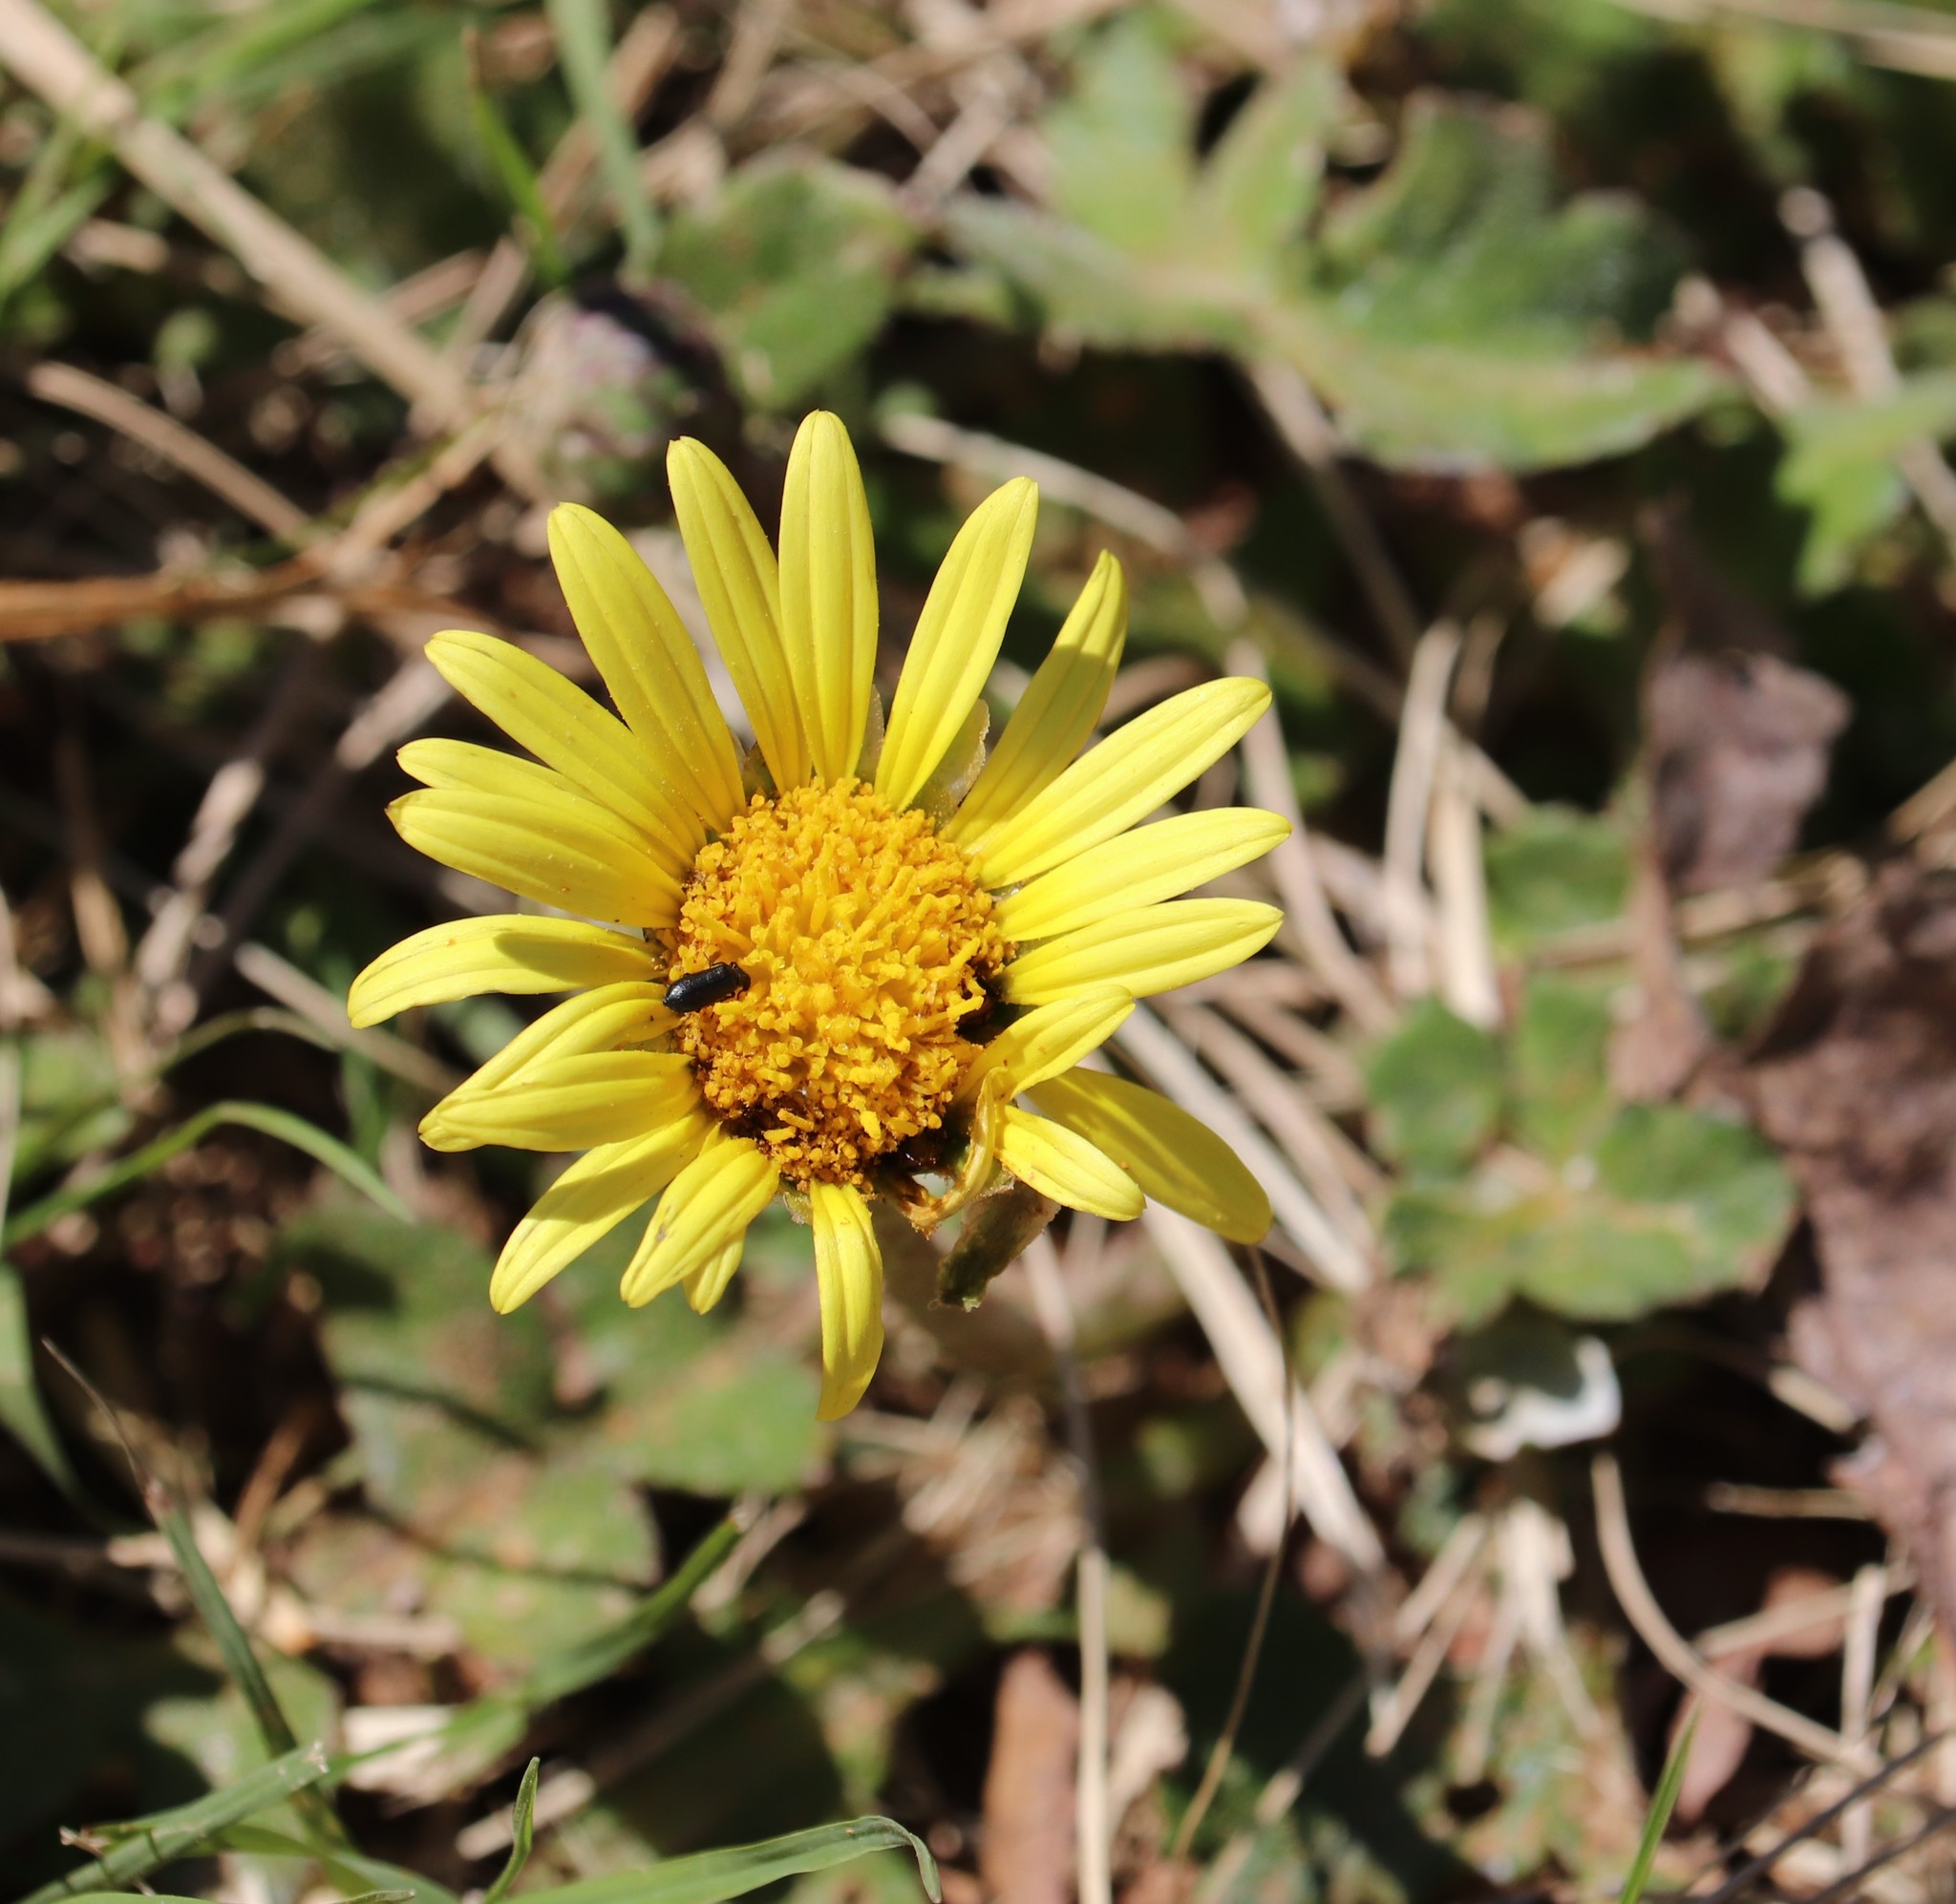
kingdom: Plantae
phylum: Tracheophyta
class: Magnoliopsida
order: Asterales
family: Asteraceae
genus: Arctotheca
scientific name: Arctotheca prostrata
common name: Capeweed
